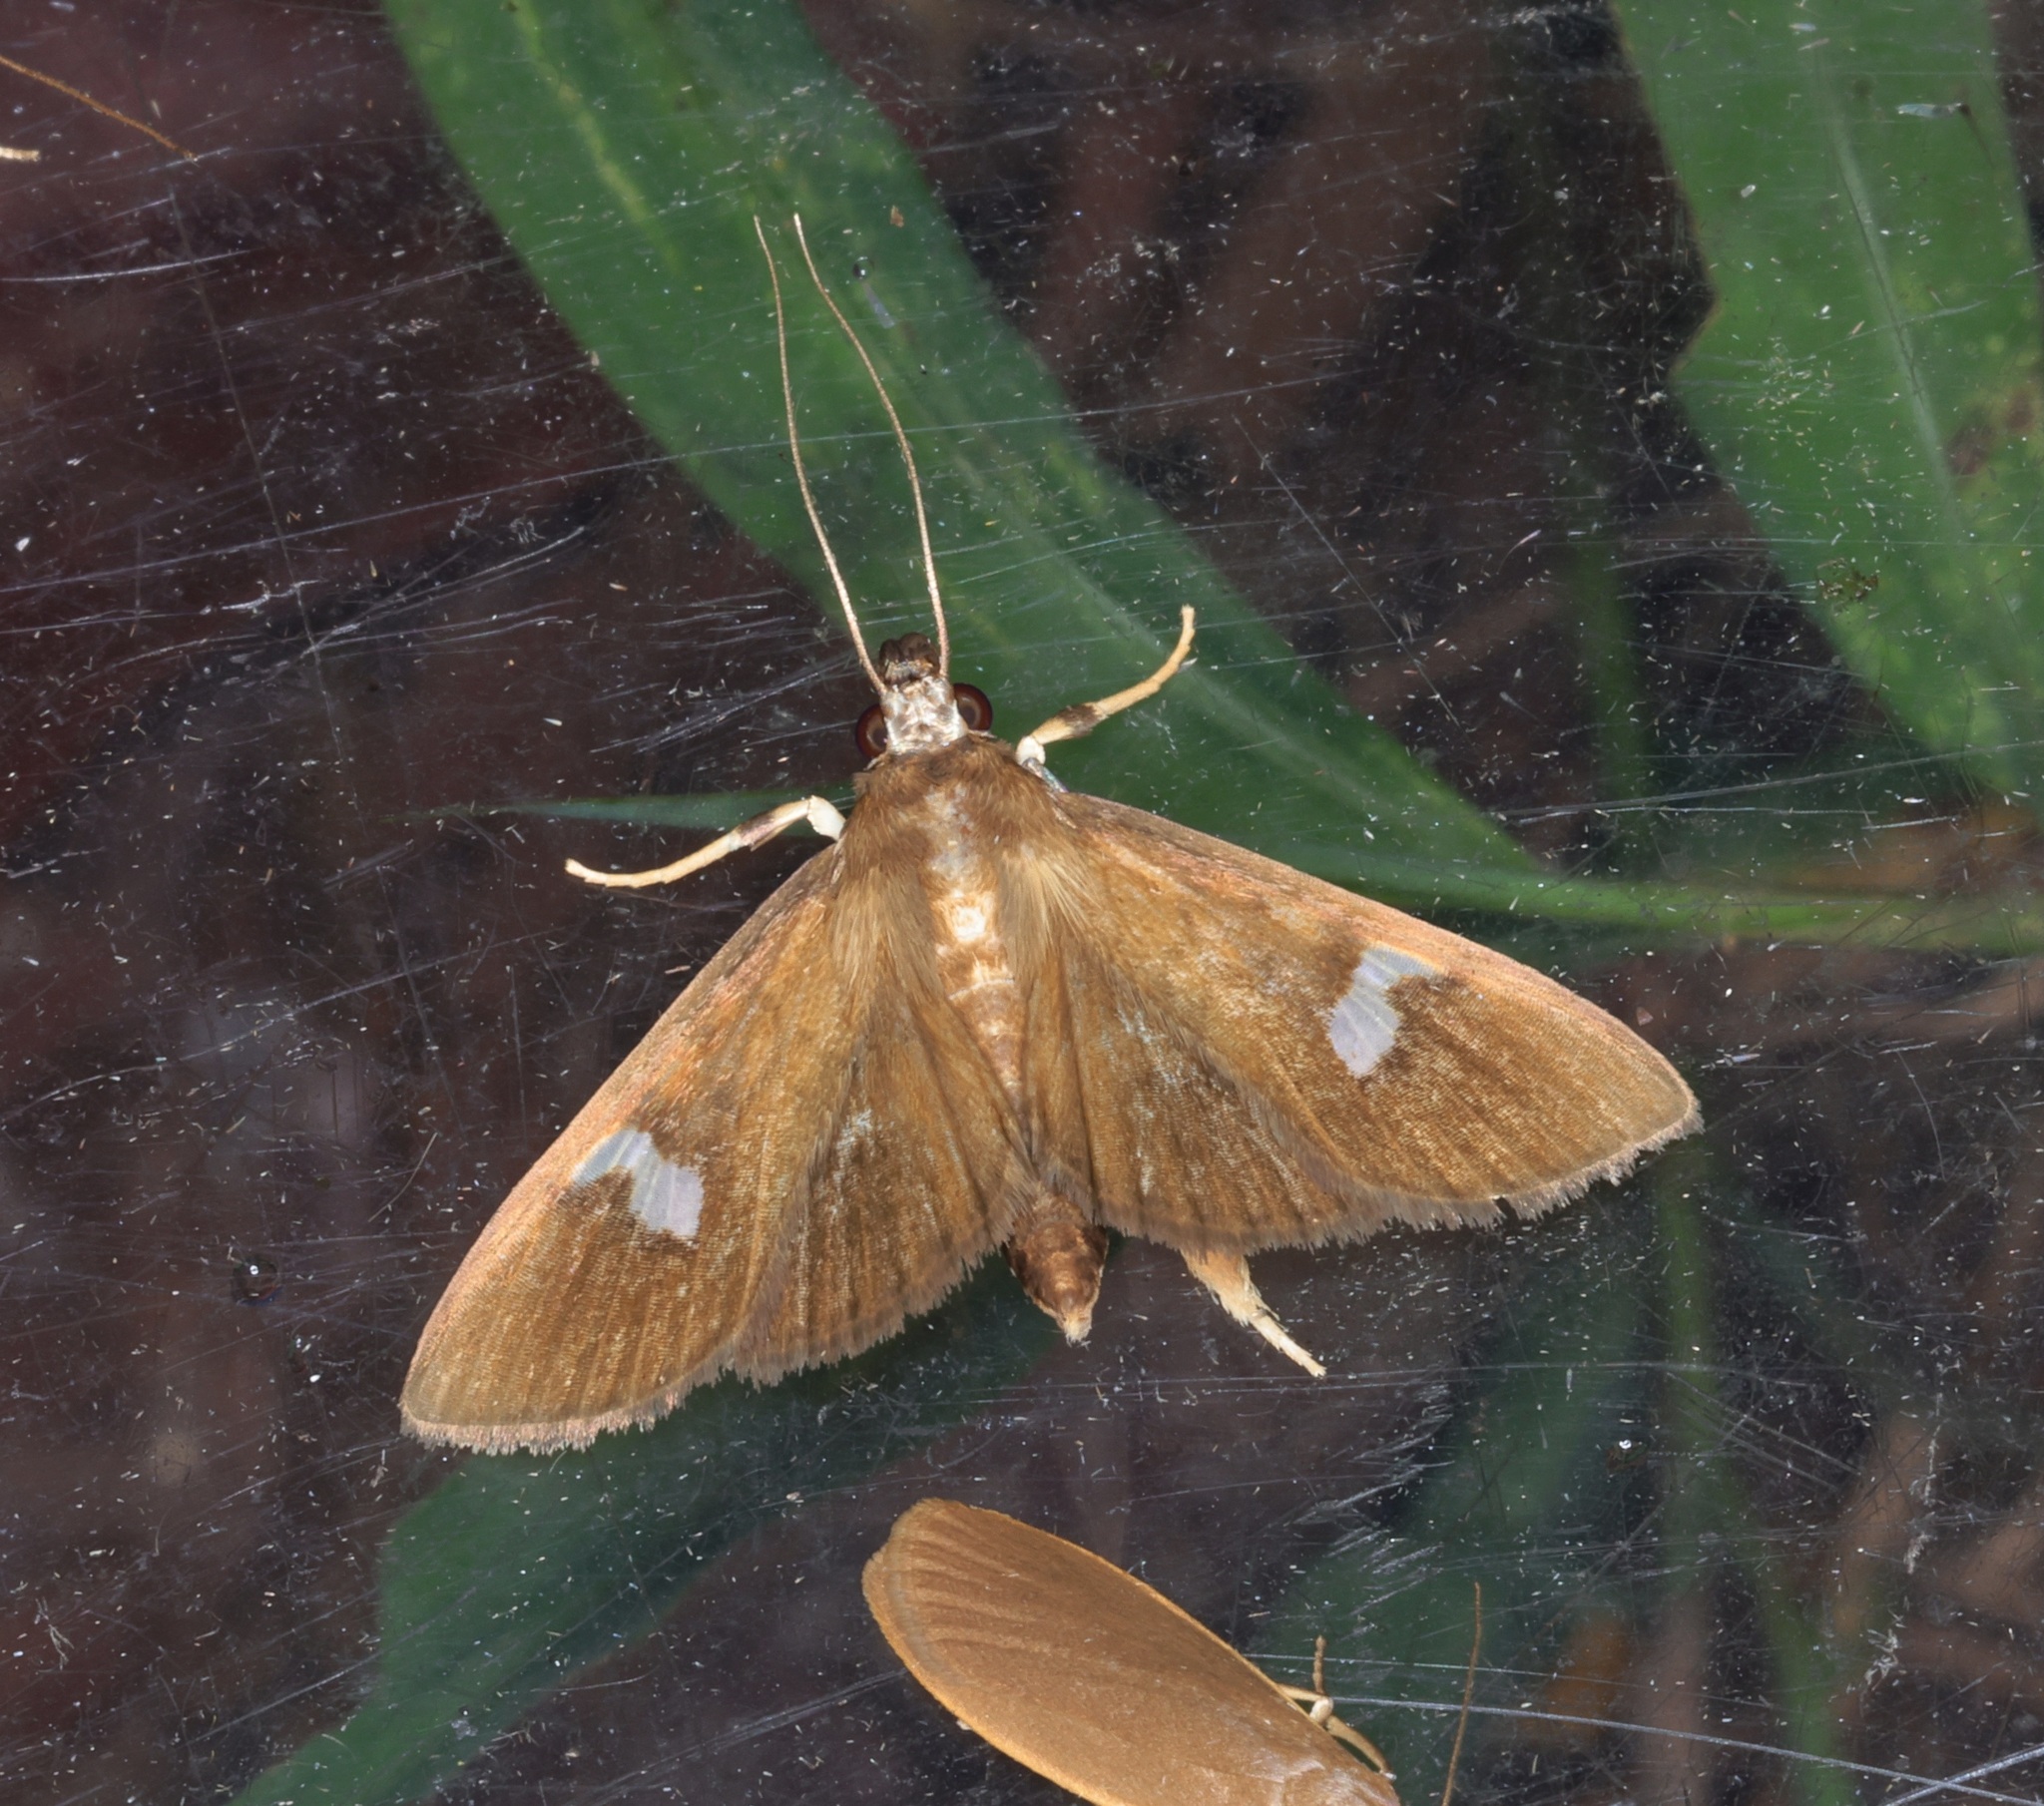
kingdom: Animalia
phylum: Arthropoda
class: Insecta
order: Lepidoptera
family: Crambidae
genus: Nosophora
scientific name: Nosophora albiguttalis
